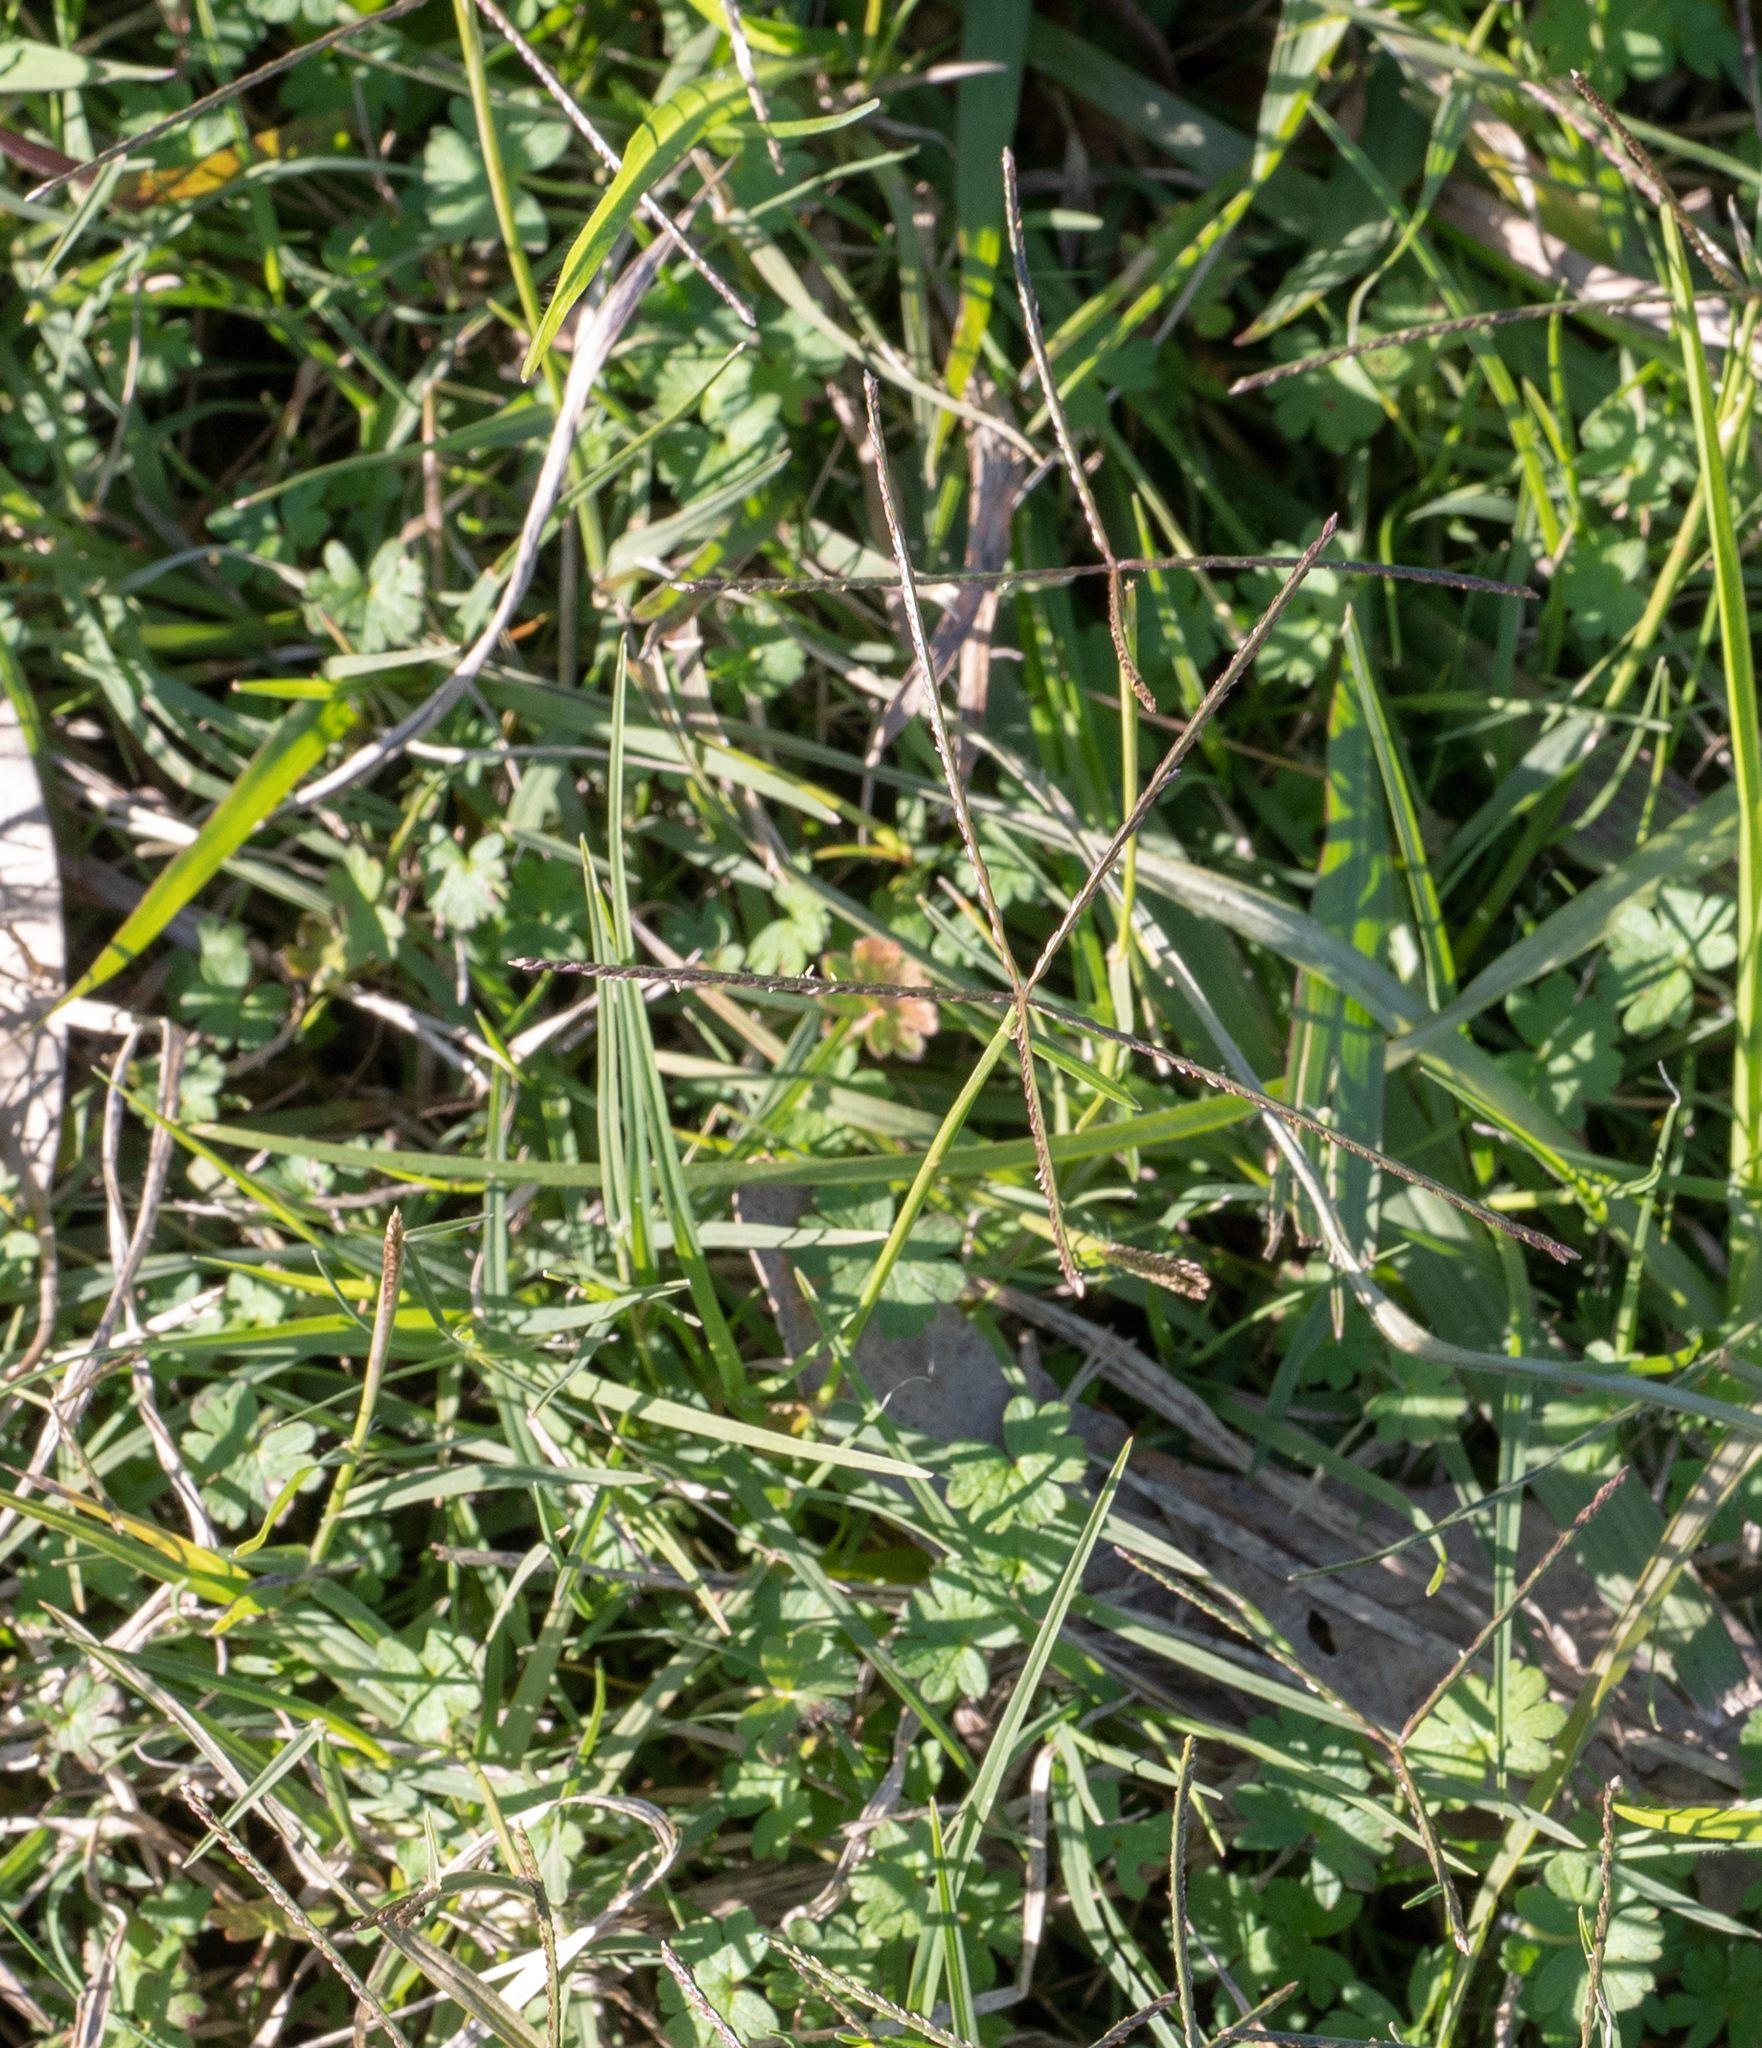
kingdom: Plantae
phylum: Tracheophyta
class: Liliopsida
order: Poales
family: Poaceae
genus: Cynodon
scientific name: Cynodon dactylon
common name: Bermuda grass
